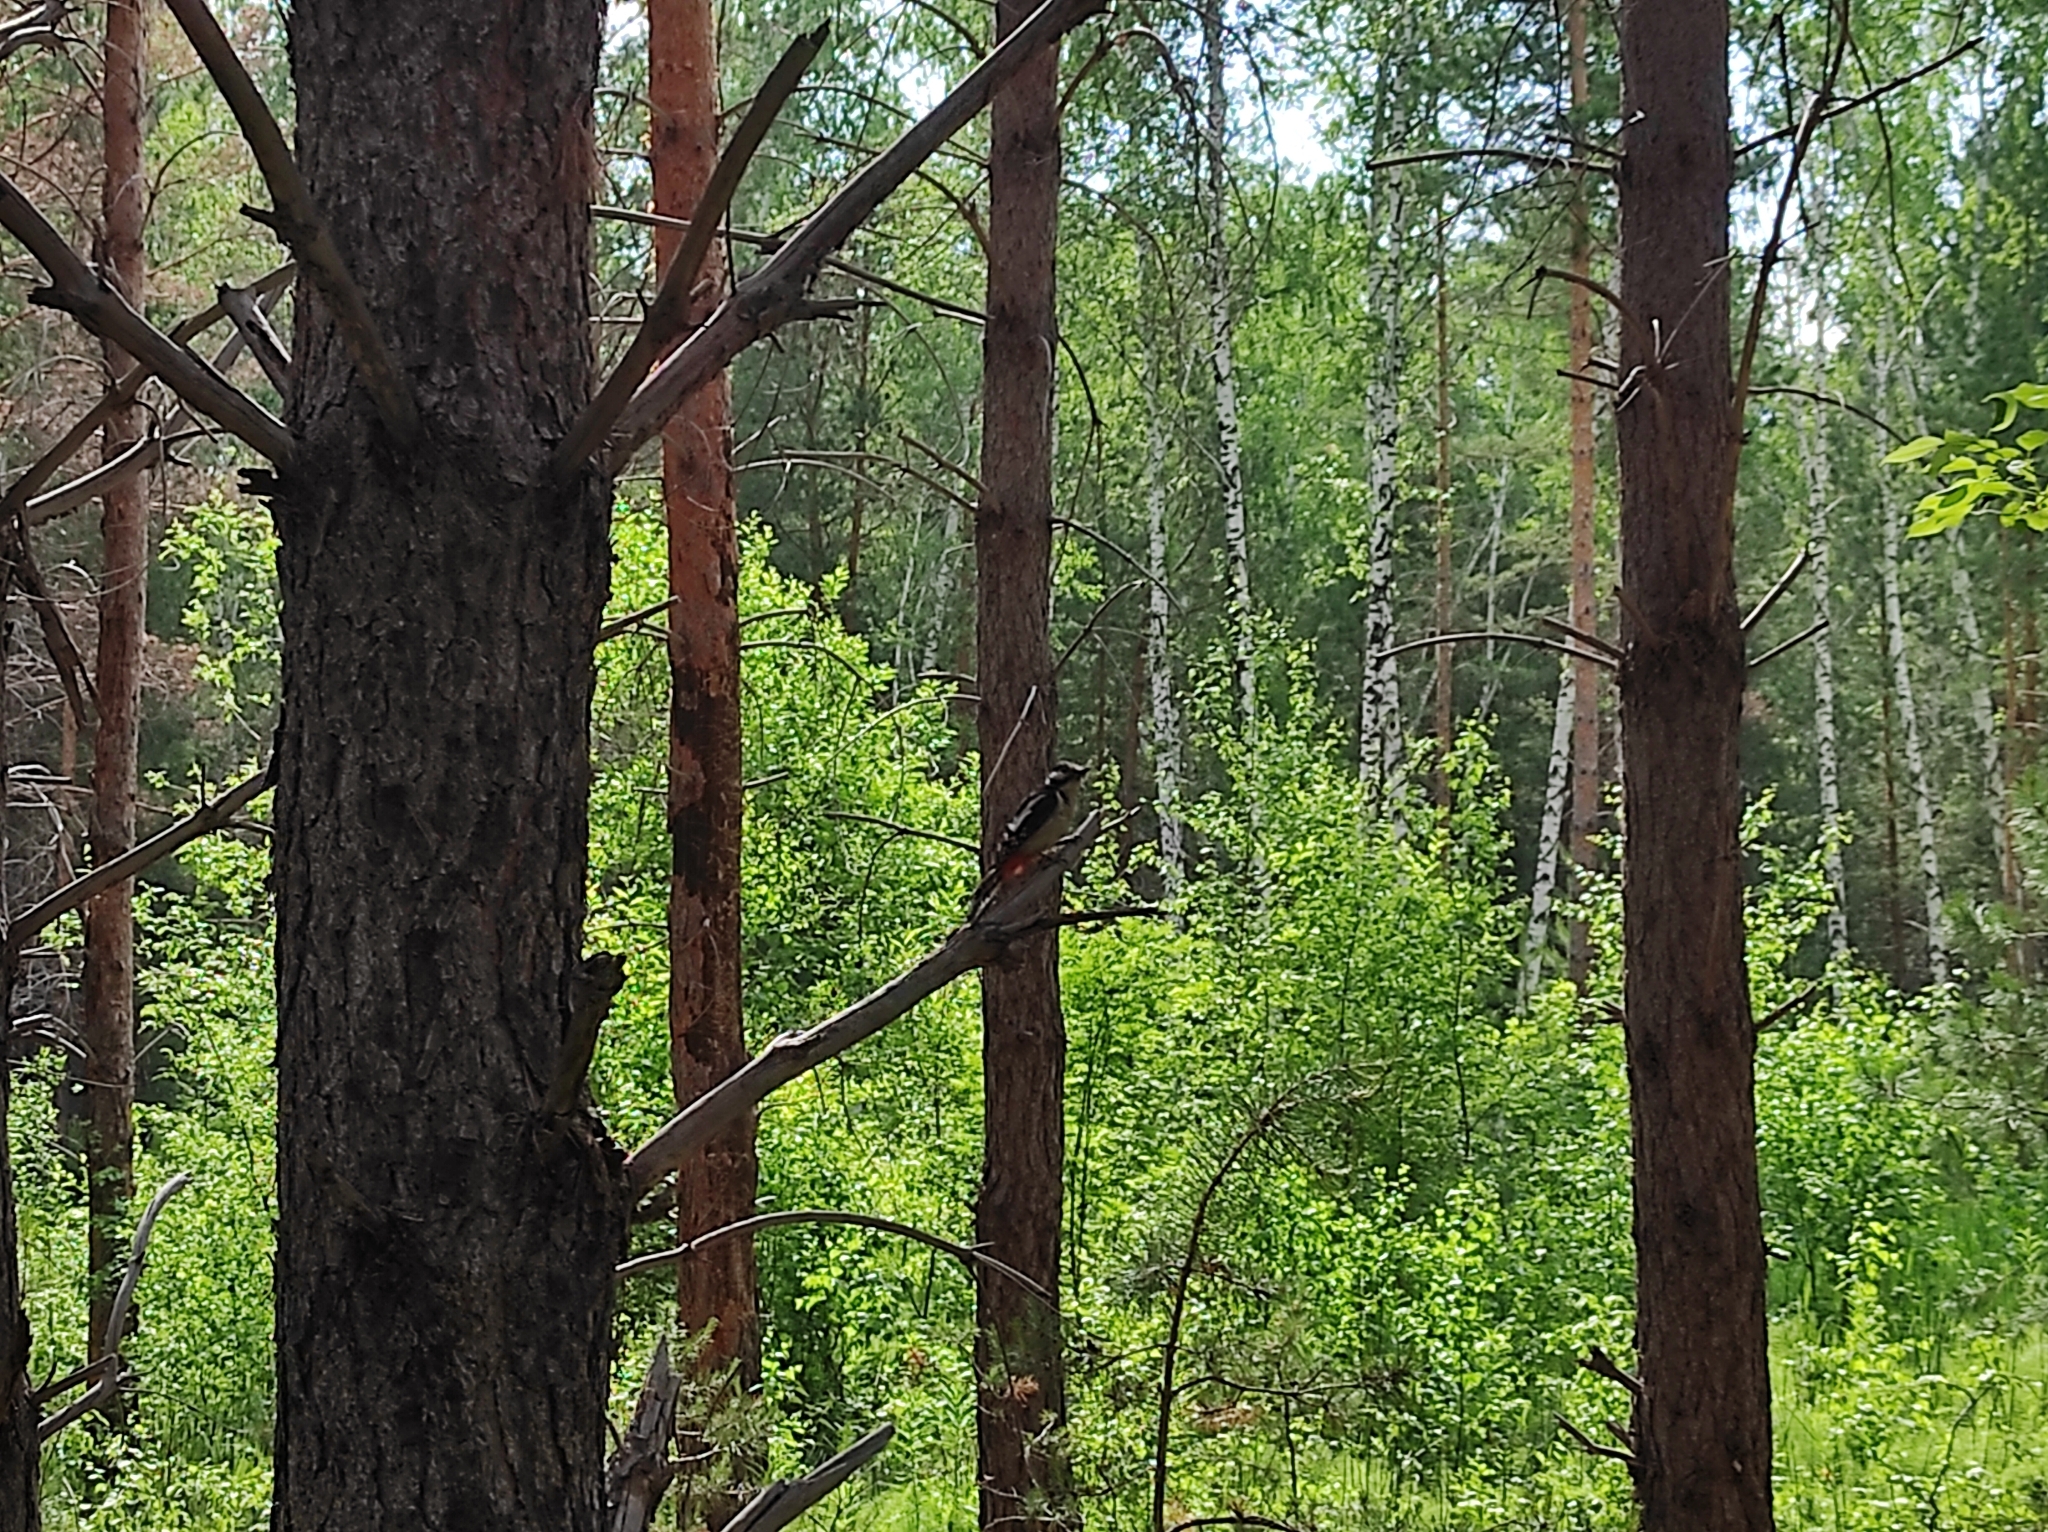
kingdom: Animalia
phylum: Chordata
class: Aves
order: Piciformes
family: Picidae
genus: Dendrocopos
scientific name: Dendrocopos major
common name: Great spotted woodpecker
